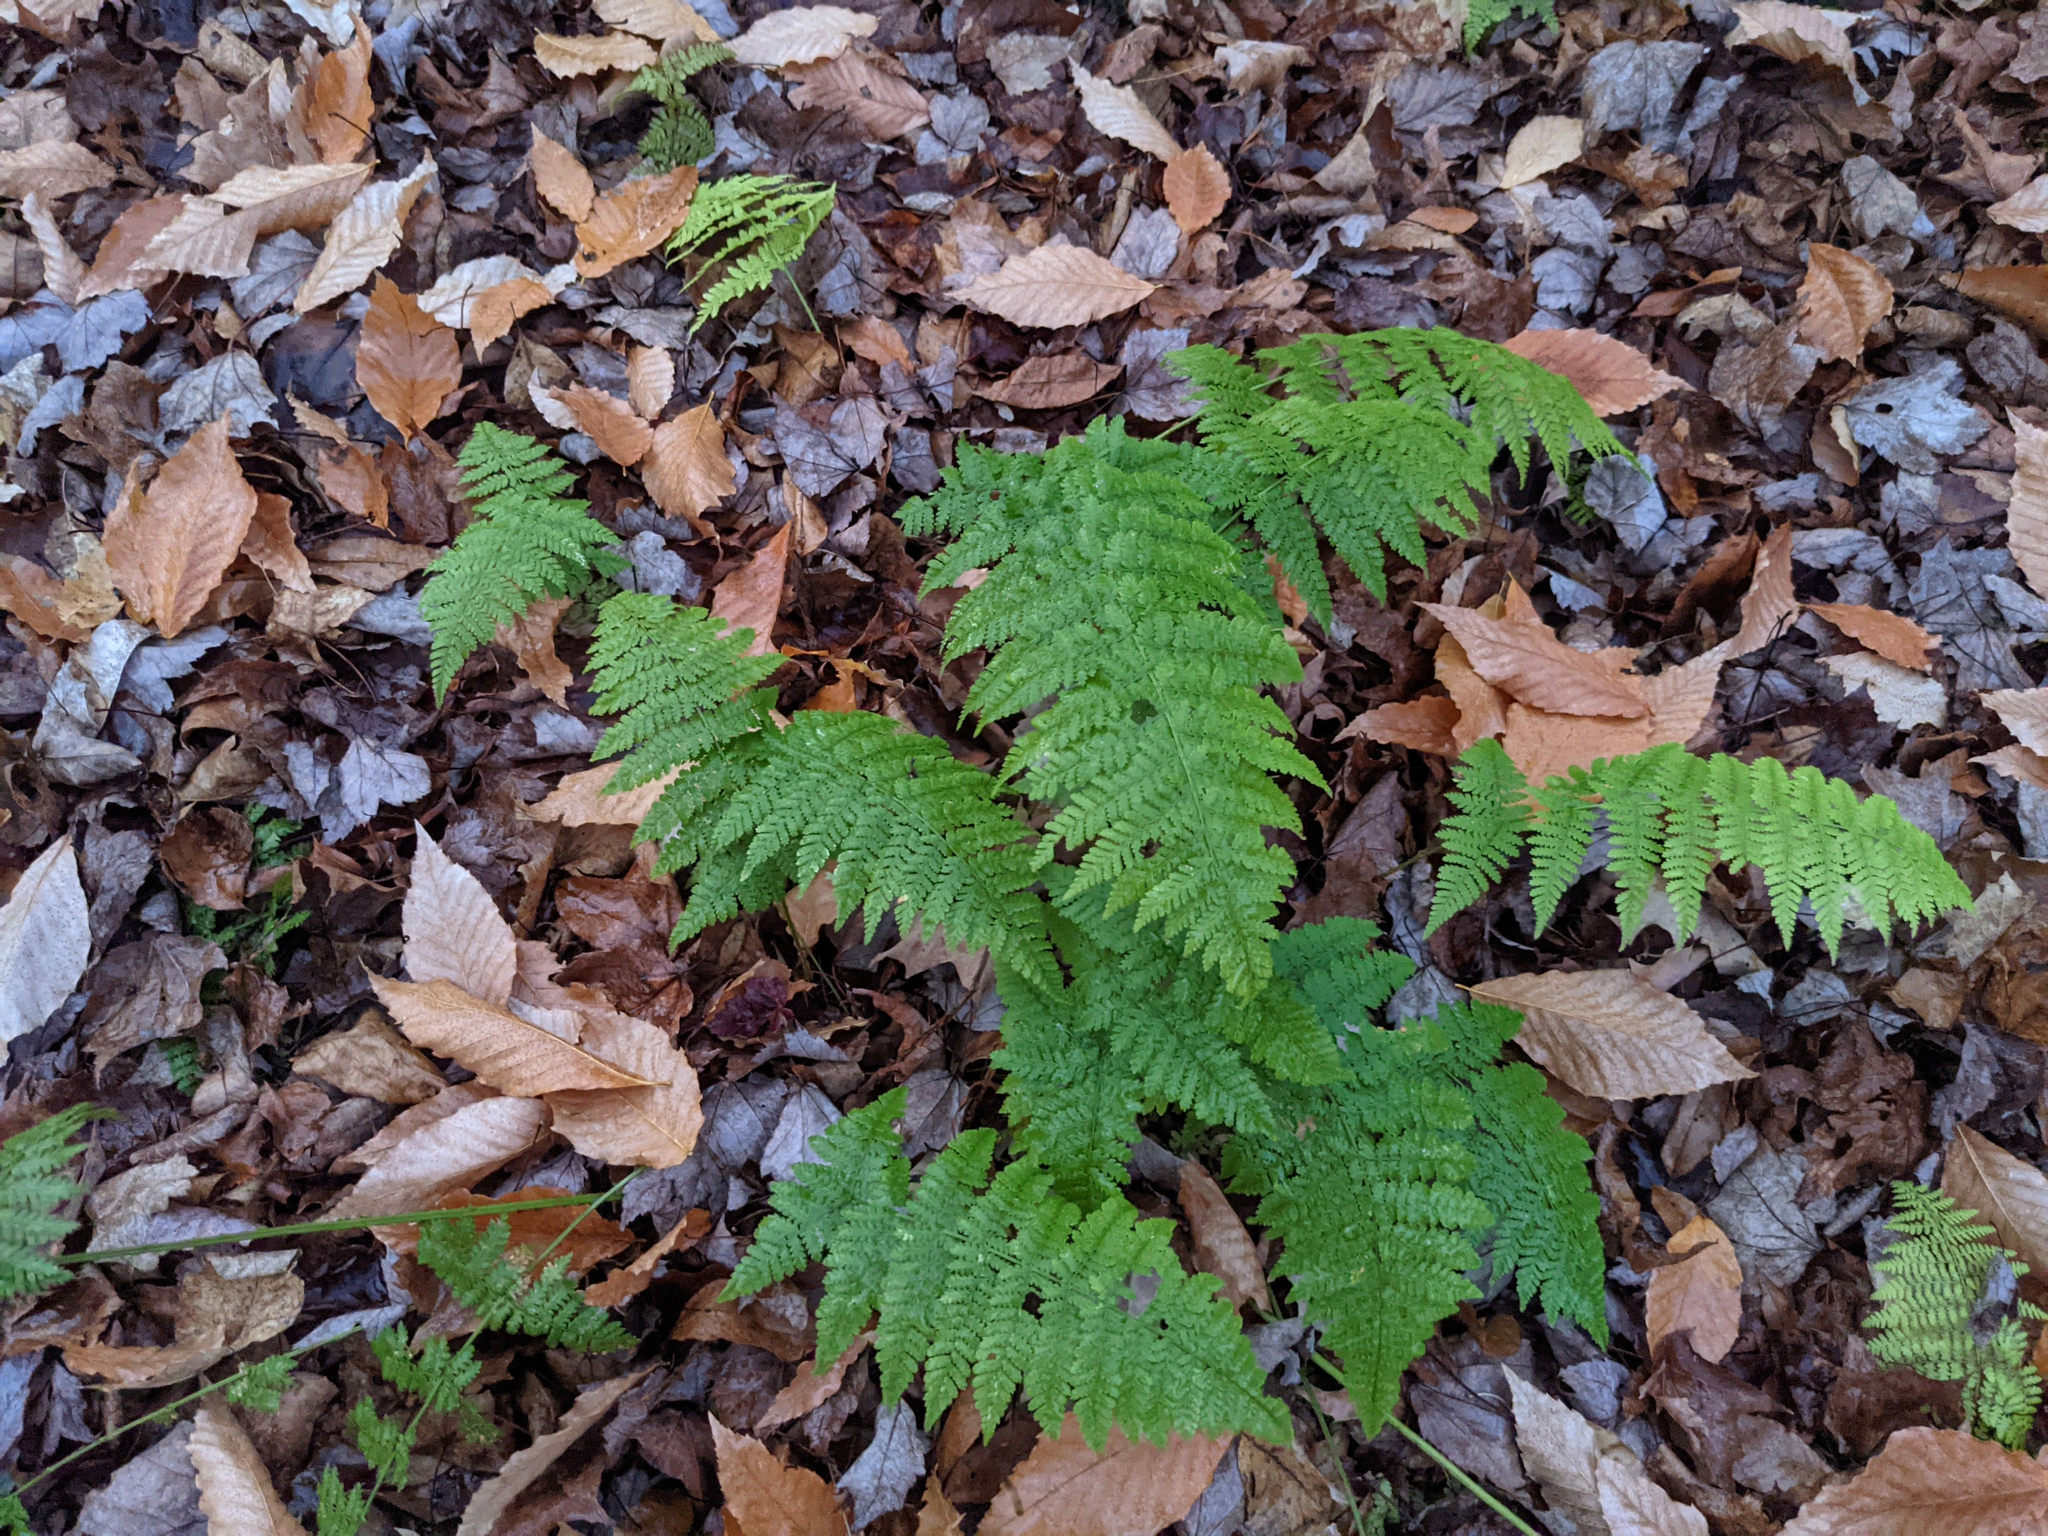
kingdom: Plantae
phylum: Tracheophyta
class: Polypodiopsida
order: Polypodiales
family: Dryopteridaceae
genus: Dryopteris
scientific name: Dryopteris intermedia
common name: Evergreen wood fern
